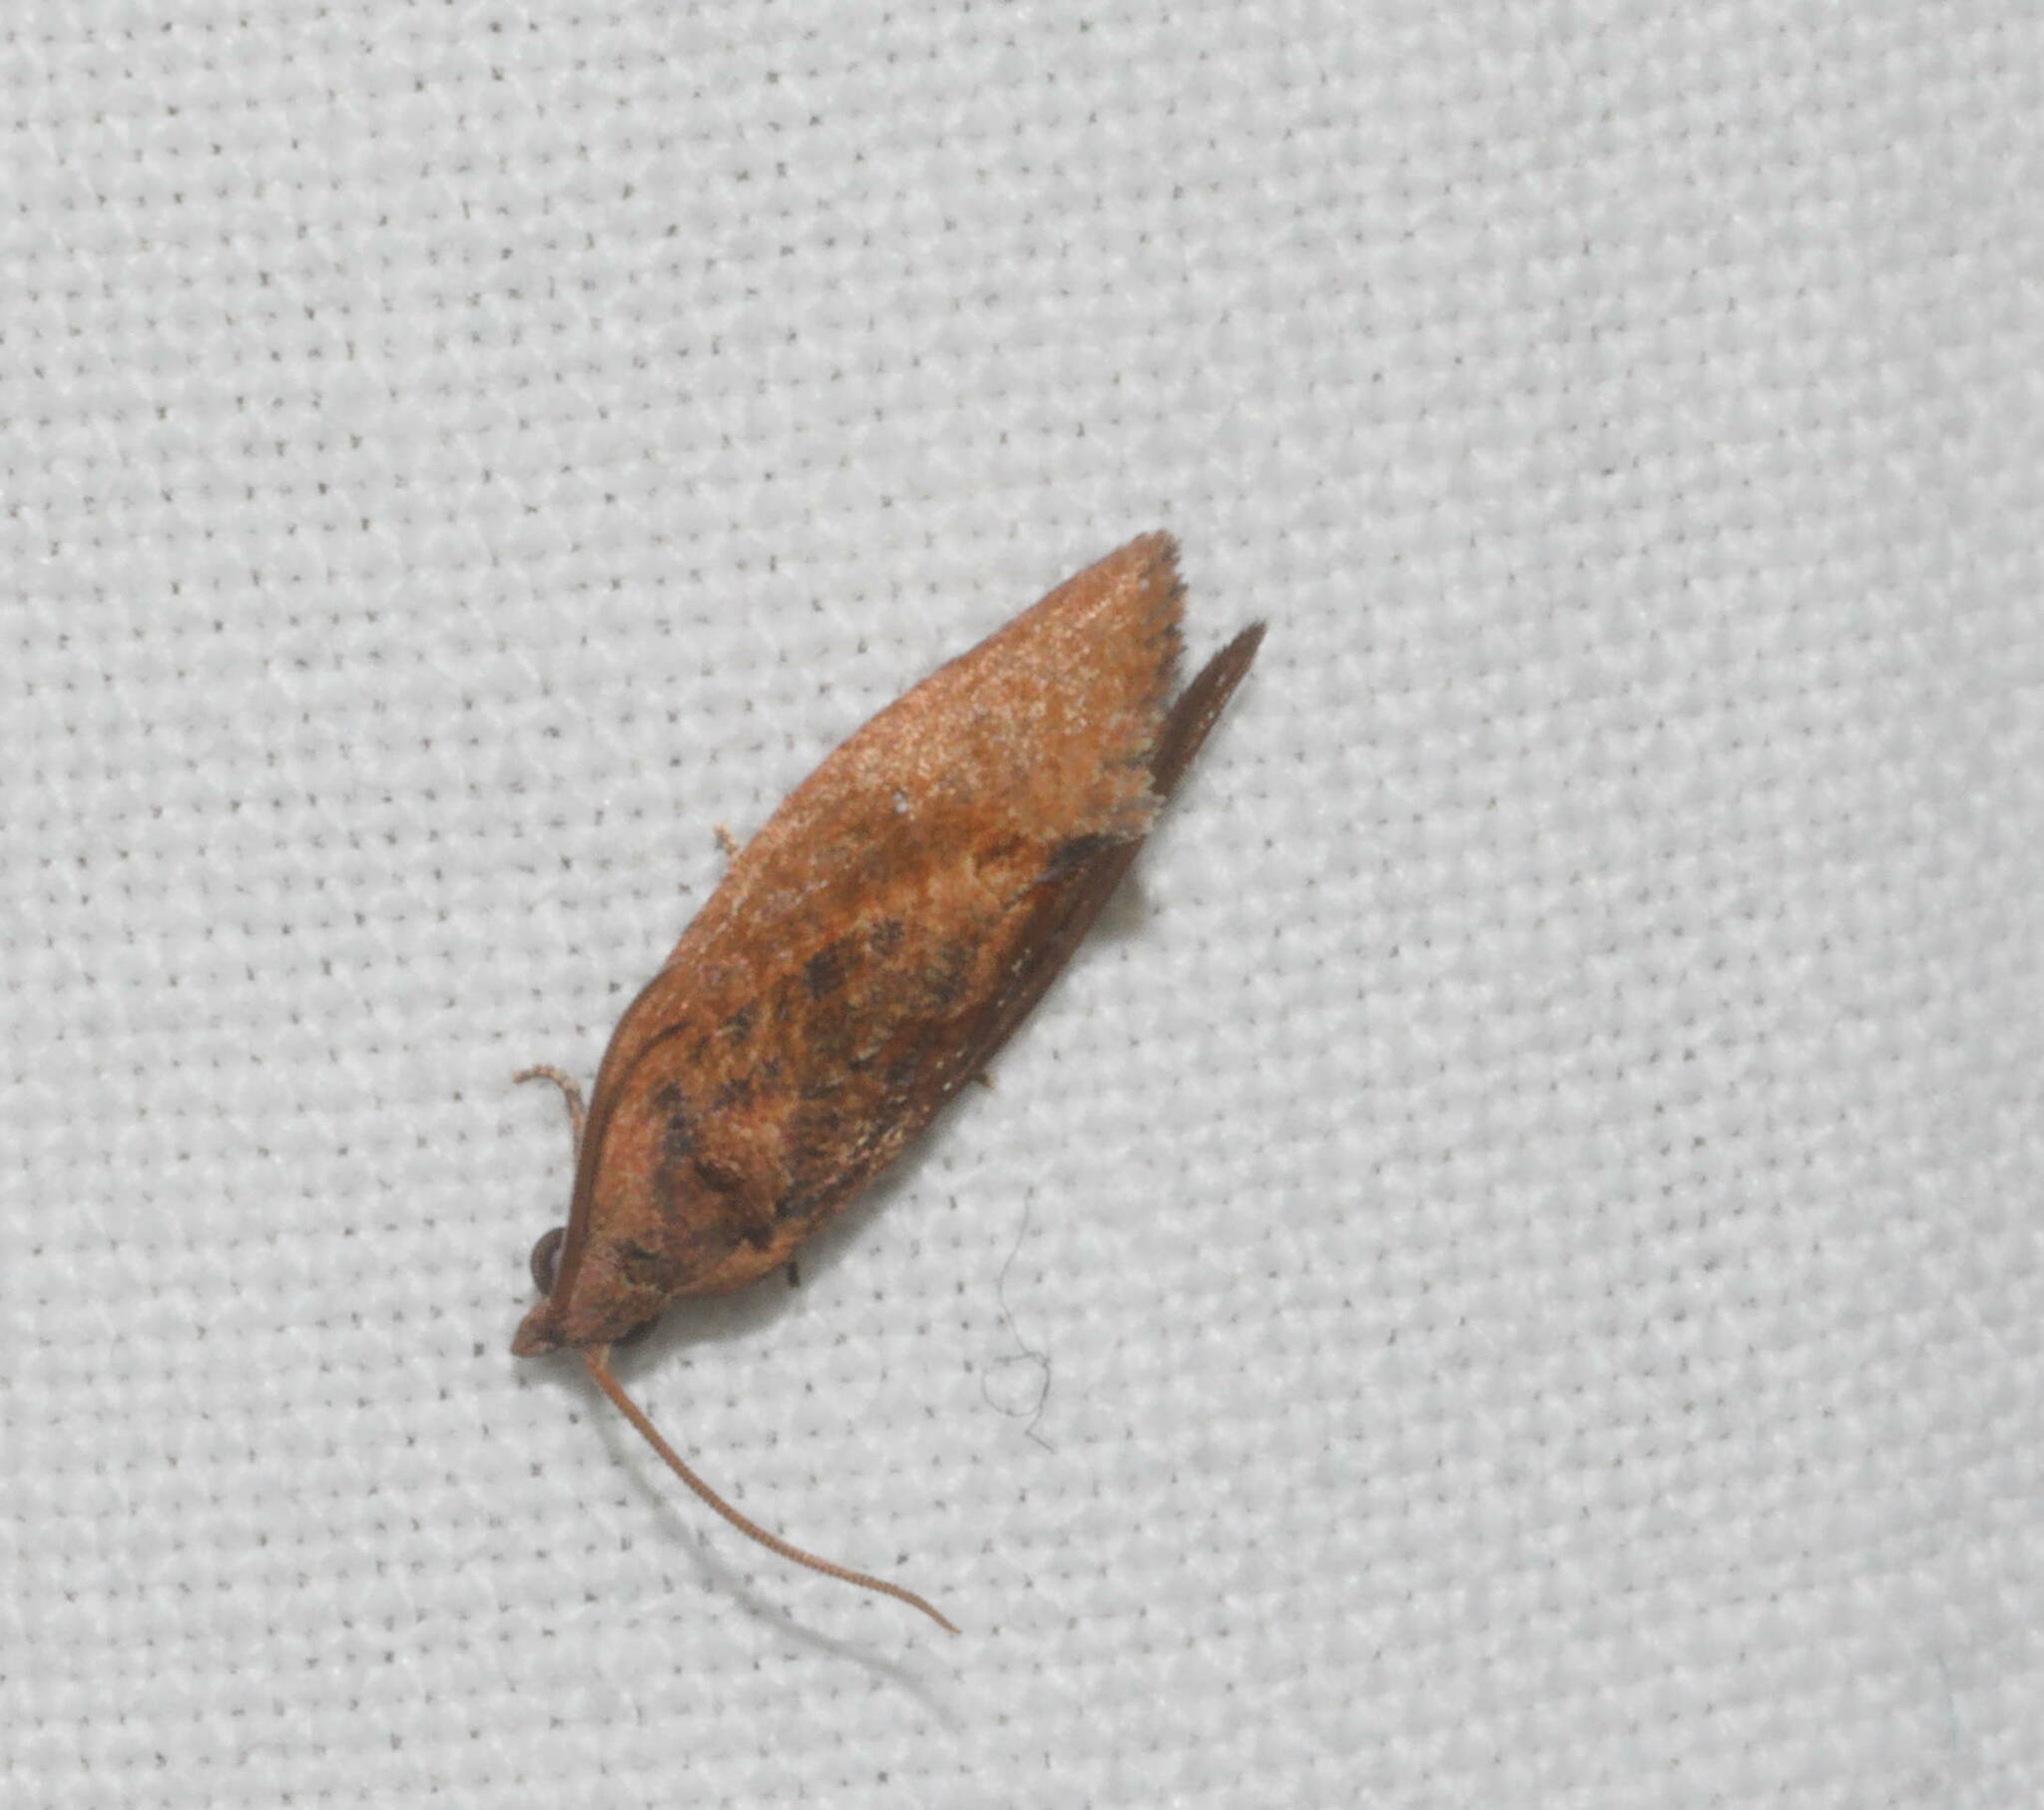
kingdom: Animalia
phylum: Arthropoda
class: Insecta
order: Lepidoptera
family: Tortricidae
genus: Cryptophlebia
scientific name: Cryptophlebia illepida
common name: Moth
